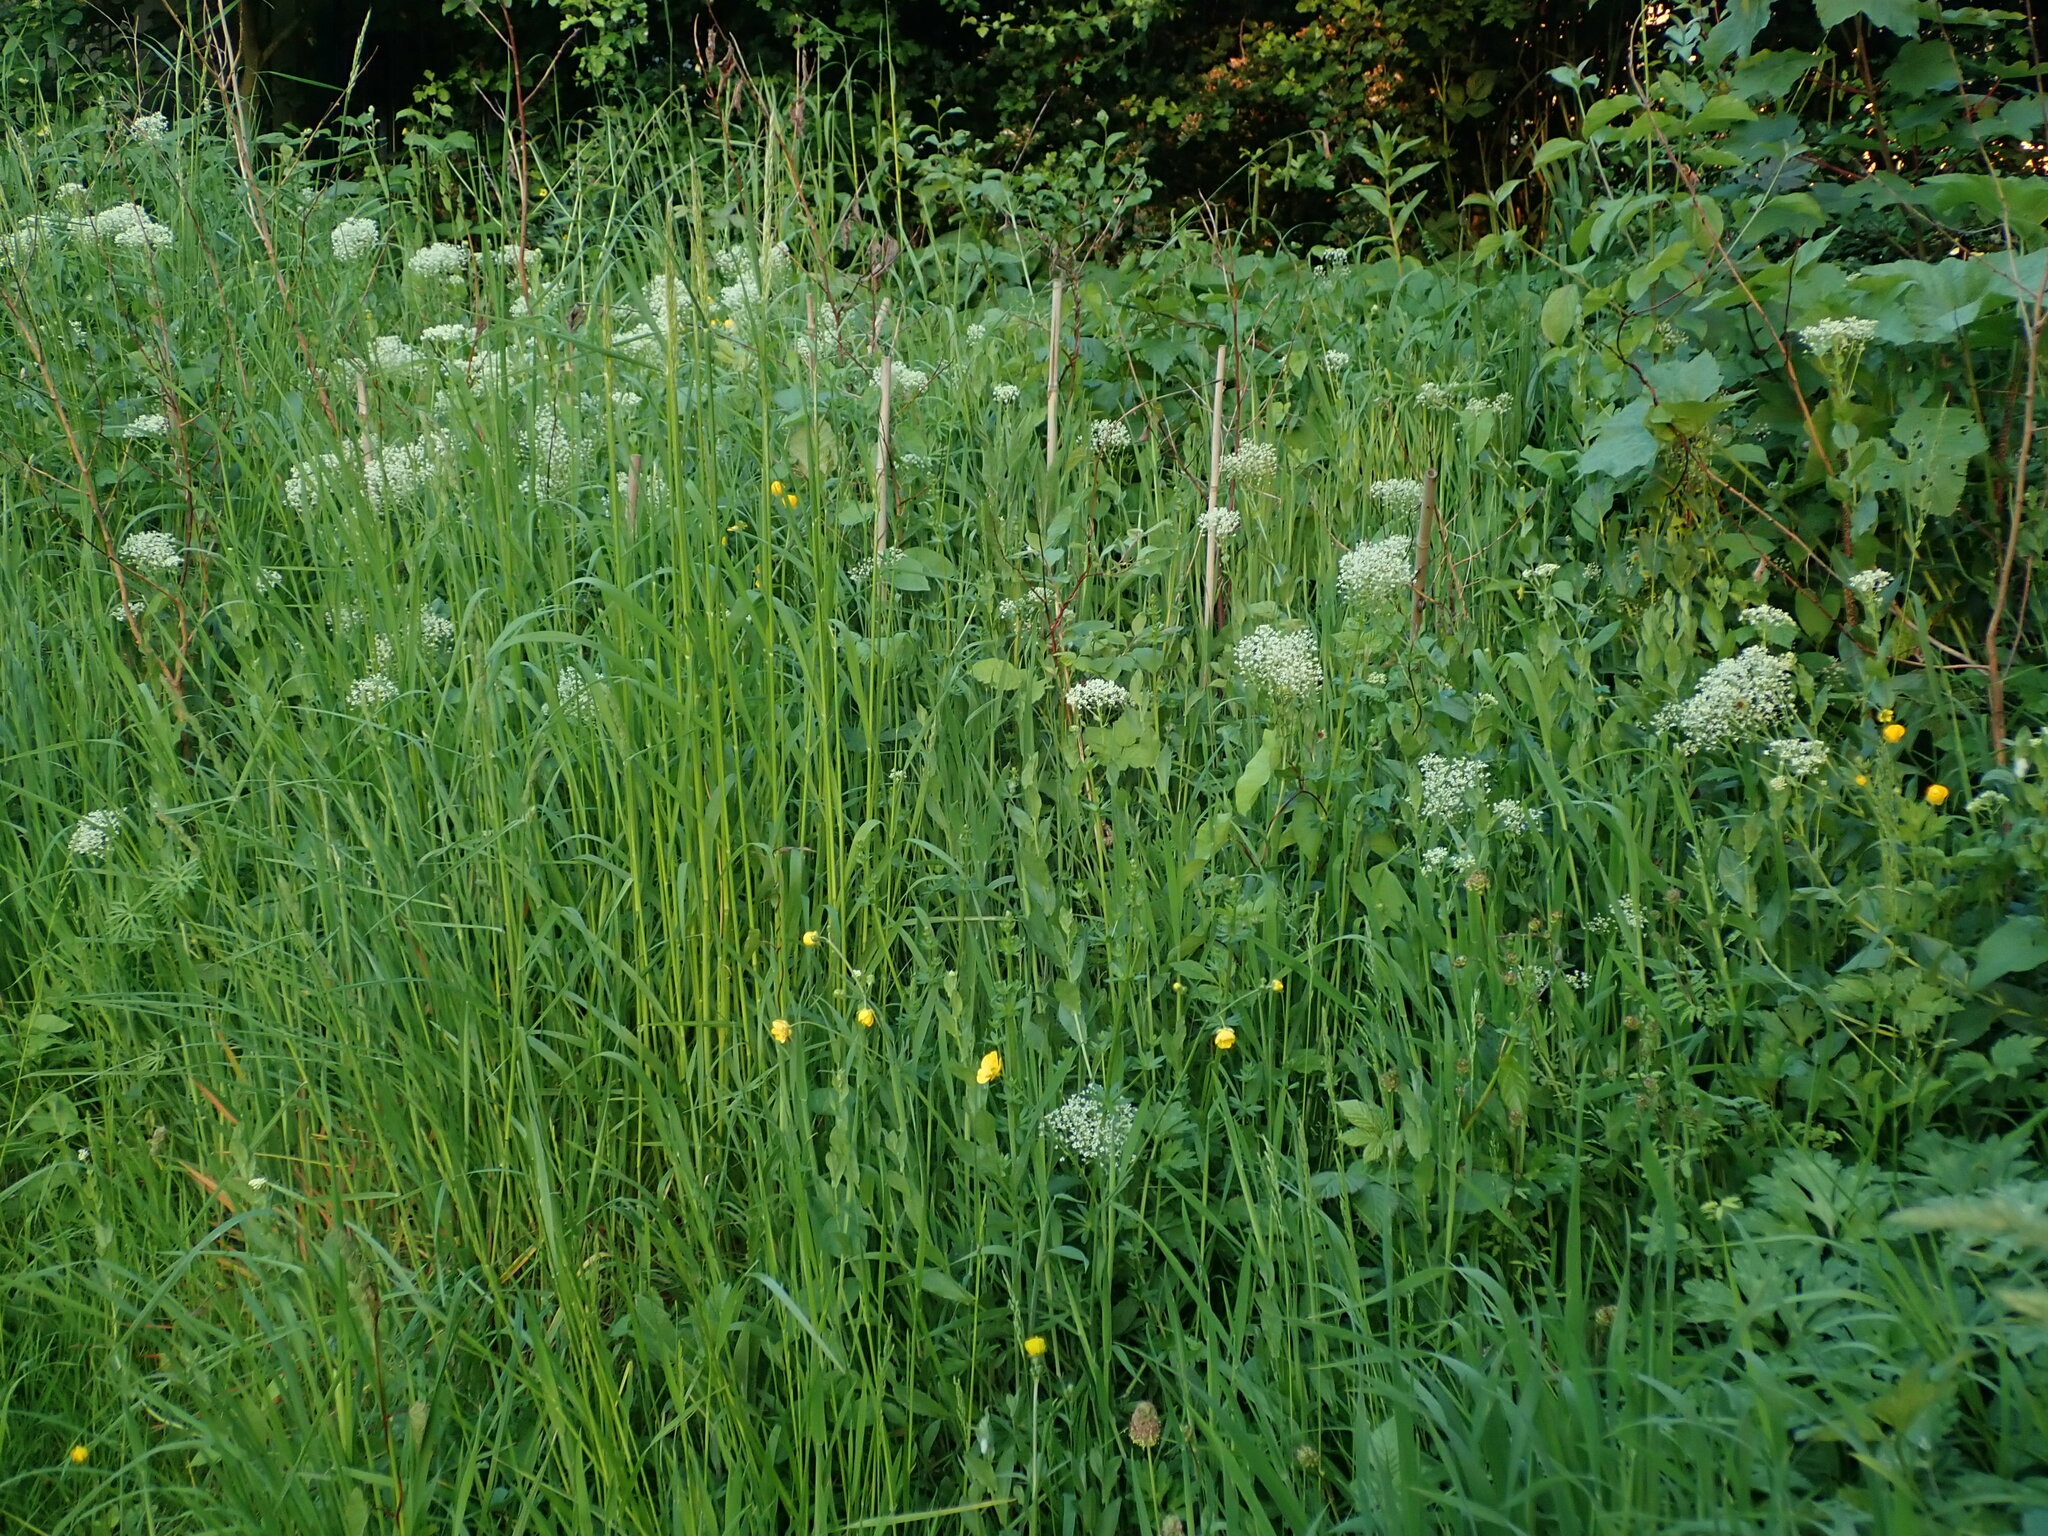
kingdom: Plantae
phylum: Tracheophyta
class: Magnoliopsida
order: Brassicales
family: Brassicaceae
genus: Lepidium
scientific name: Lepidium draba
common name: Hoary cress
